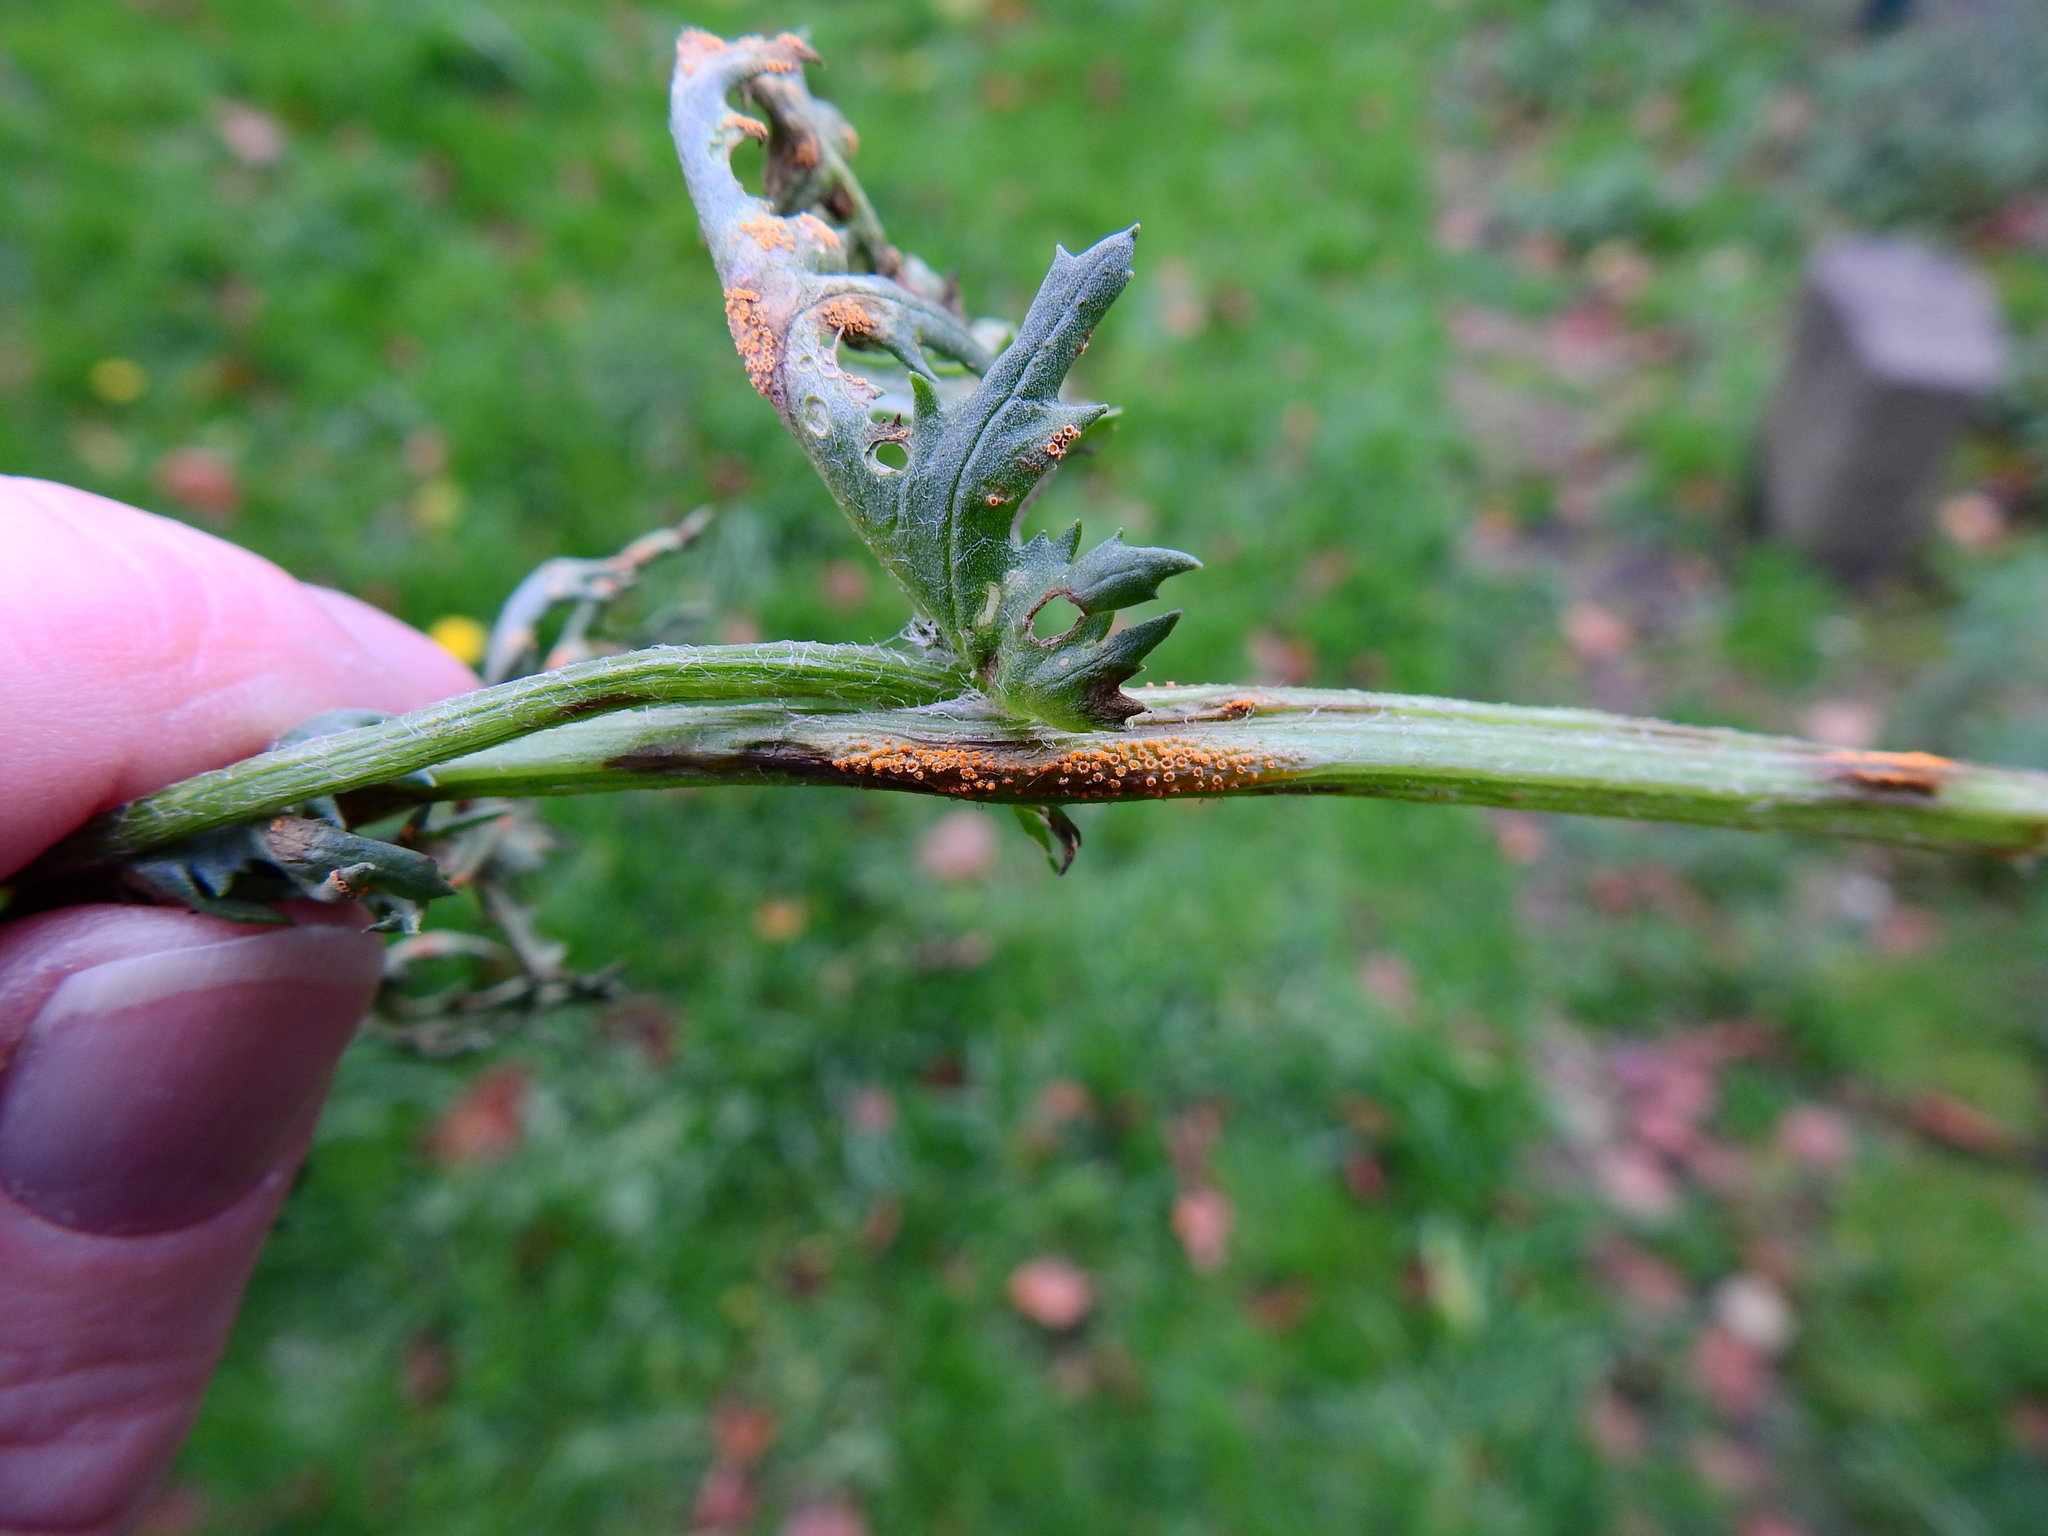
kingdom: Fungi
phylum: Basidiomycota
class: Pucciniomycetes
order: Pucciniales
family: Pucciniaceae
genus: Puccinia
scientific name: Puccinia lagenophorae
